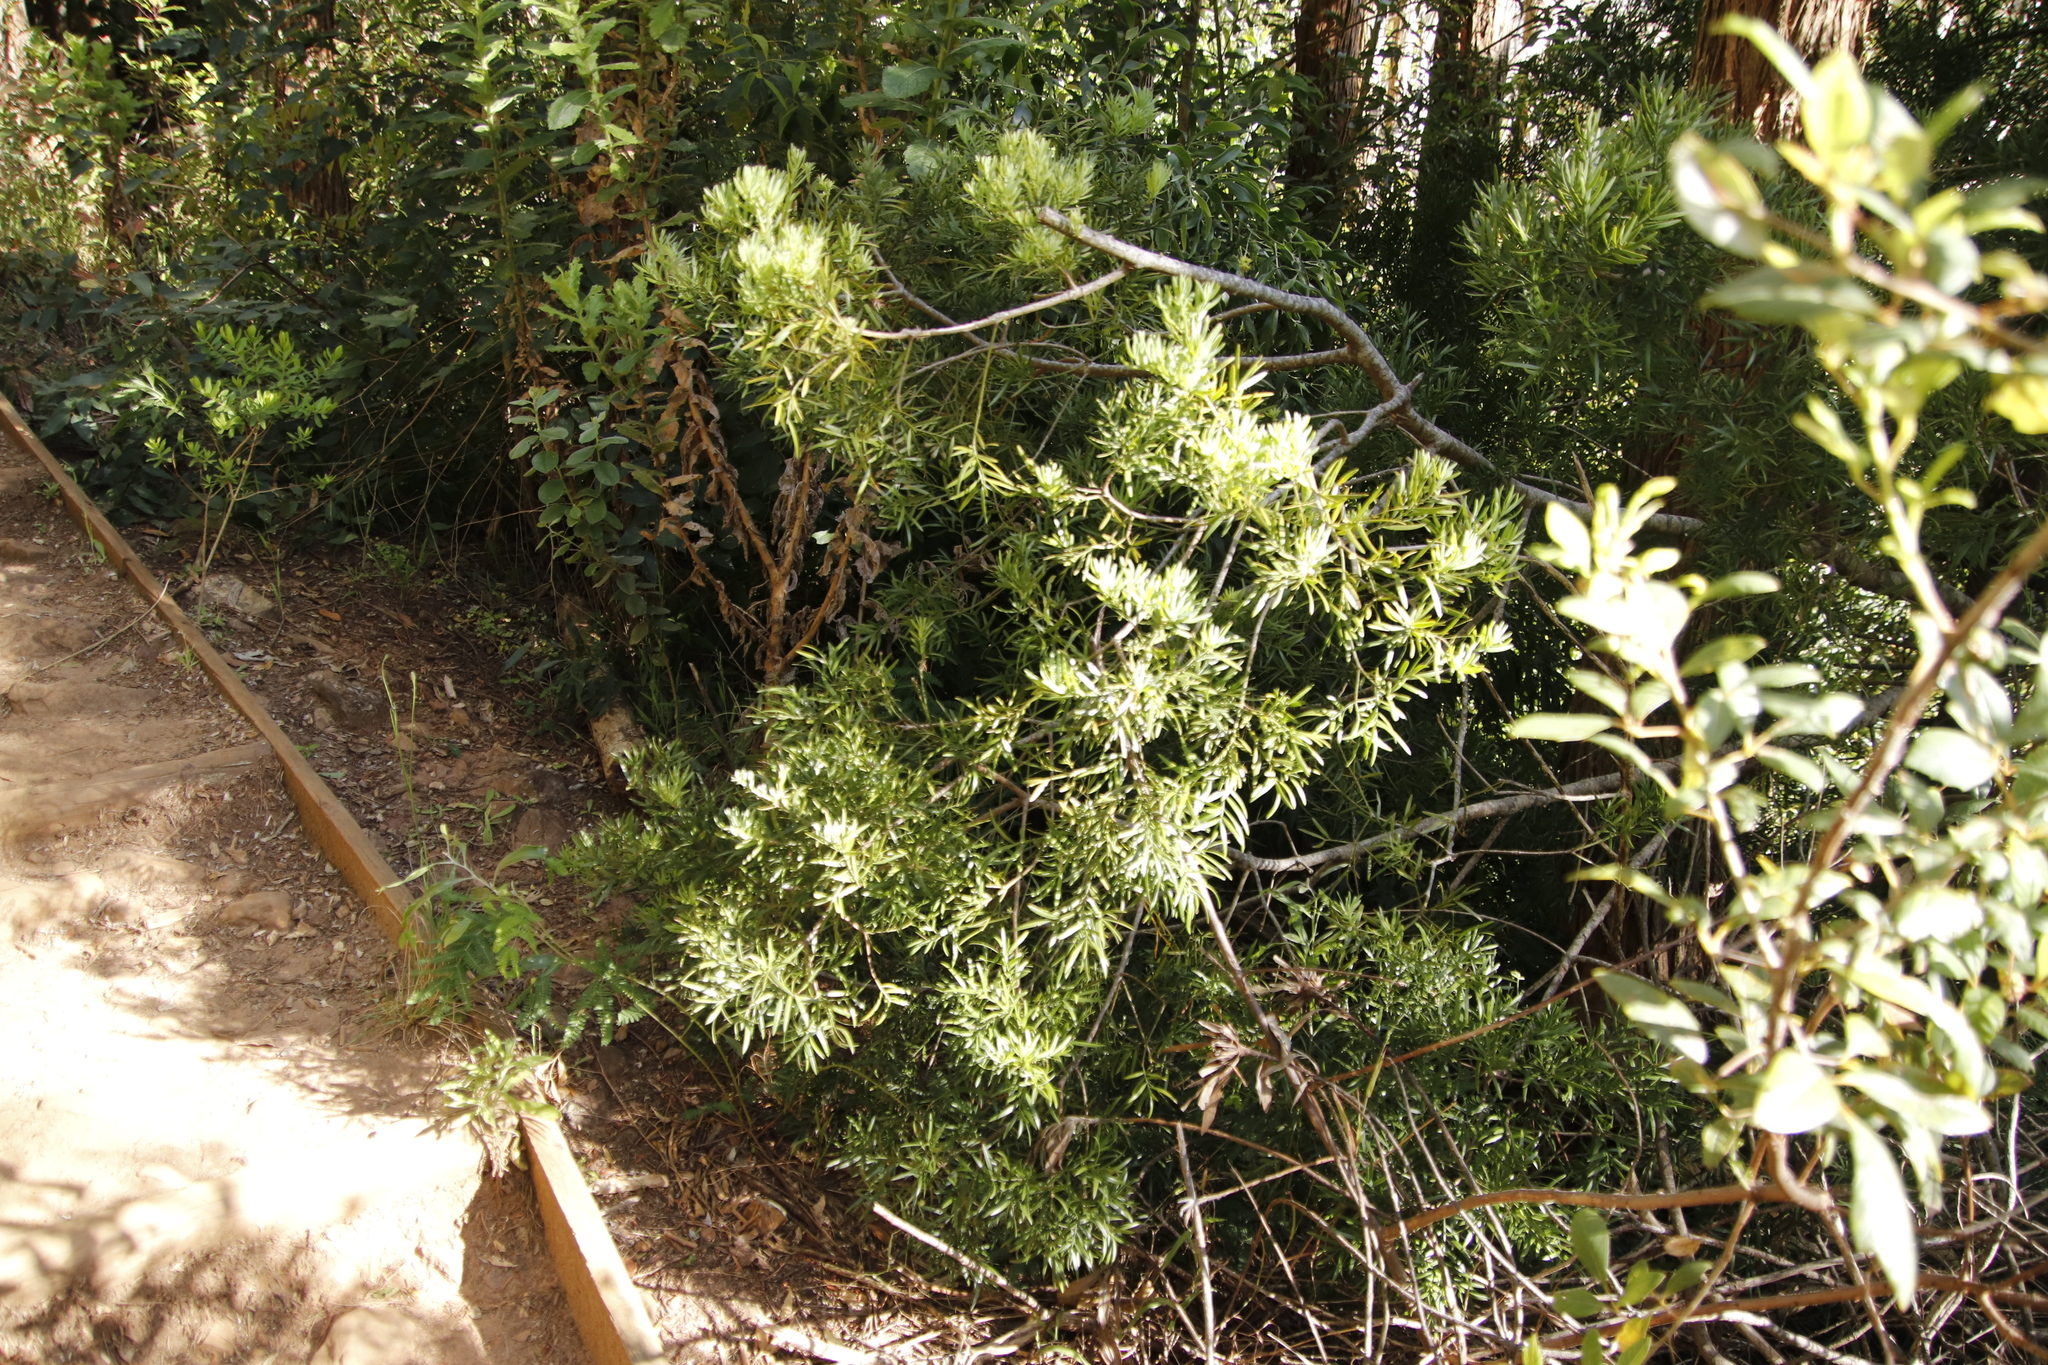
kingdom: Plantae
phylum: Tracheophyta
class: Pinopsida
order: Pinales
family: Podocarpaceae
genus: Afrocarpus
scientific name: Afrocarpus falcatus
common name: Bastard yellowwood
